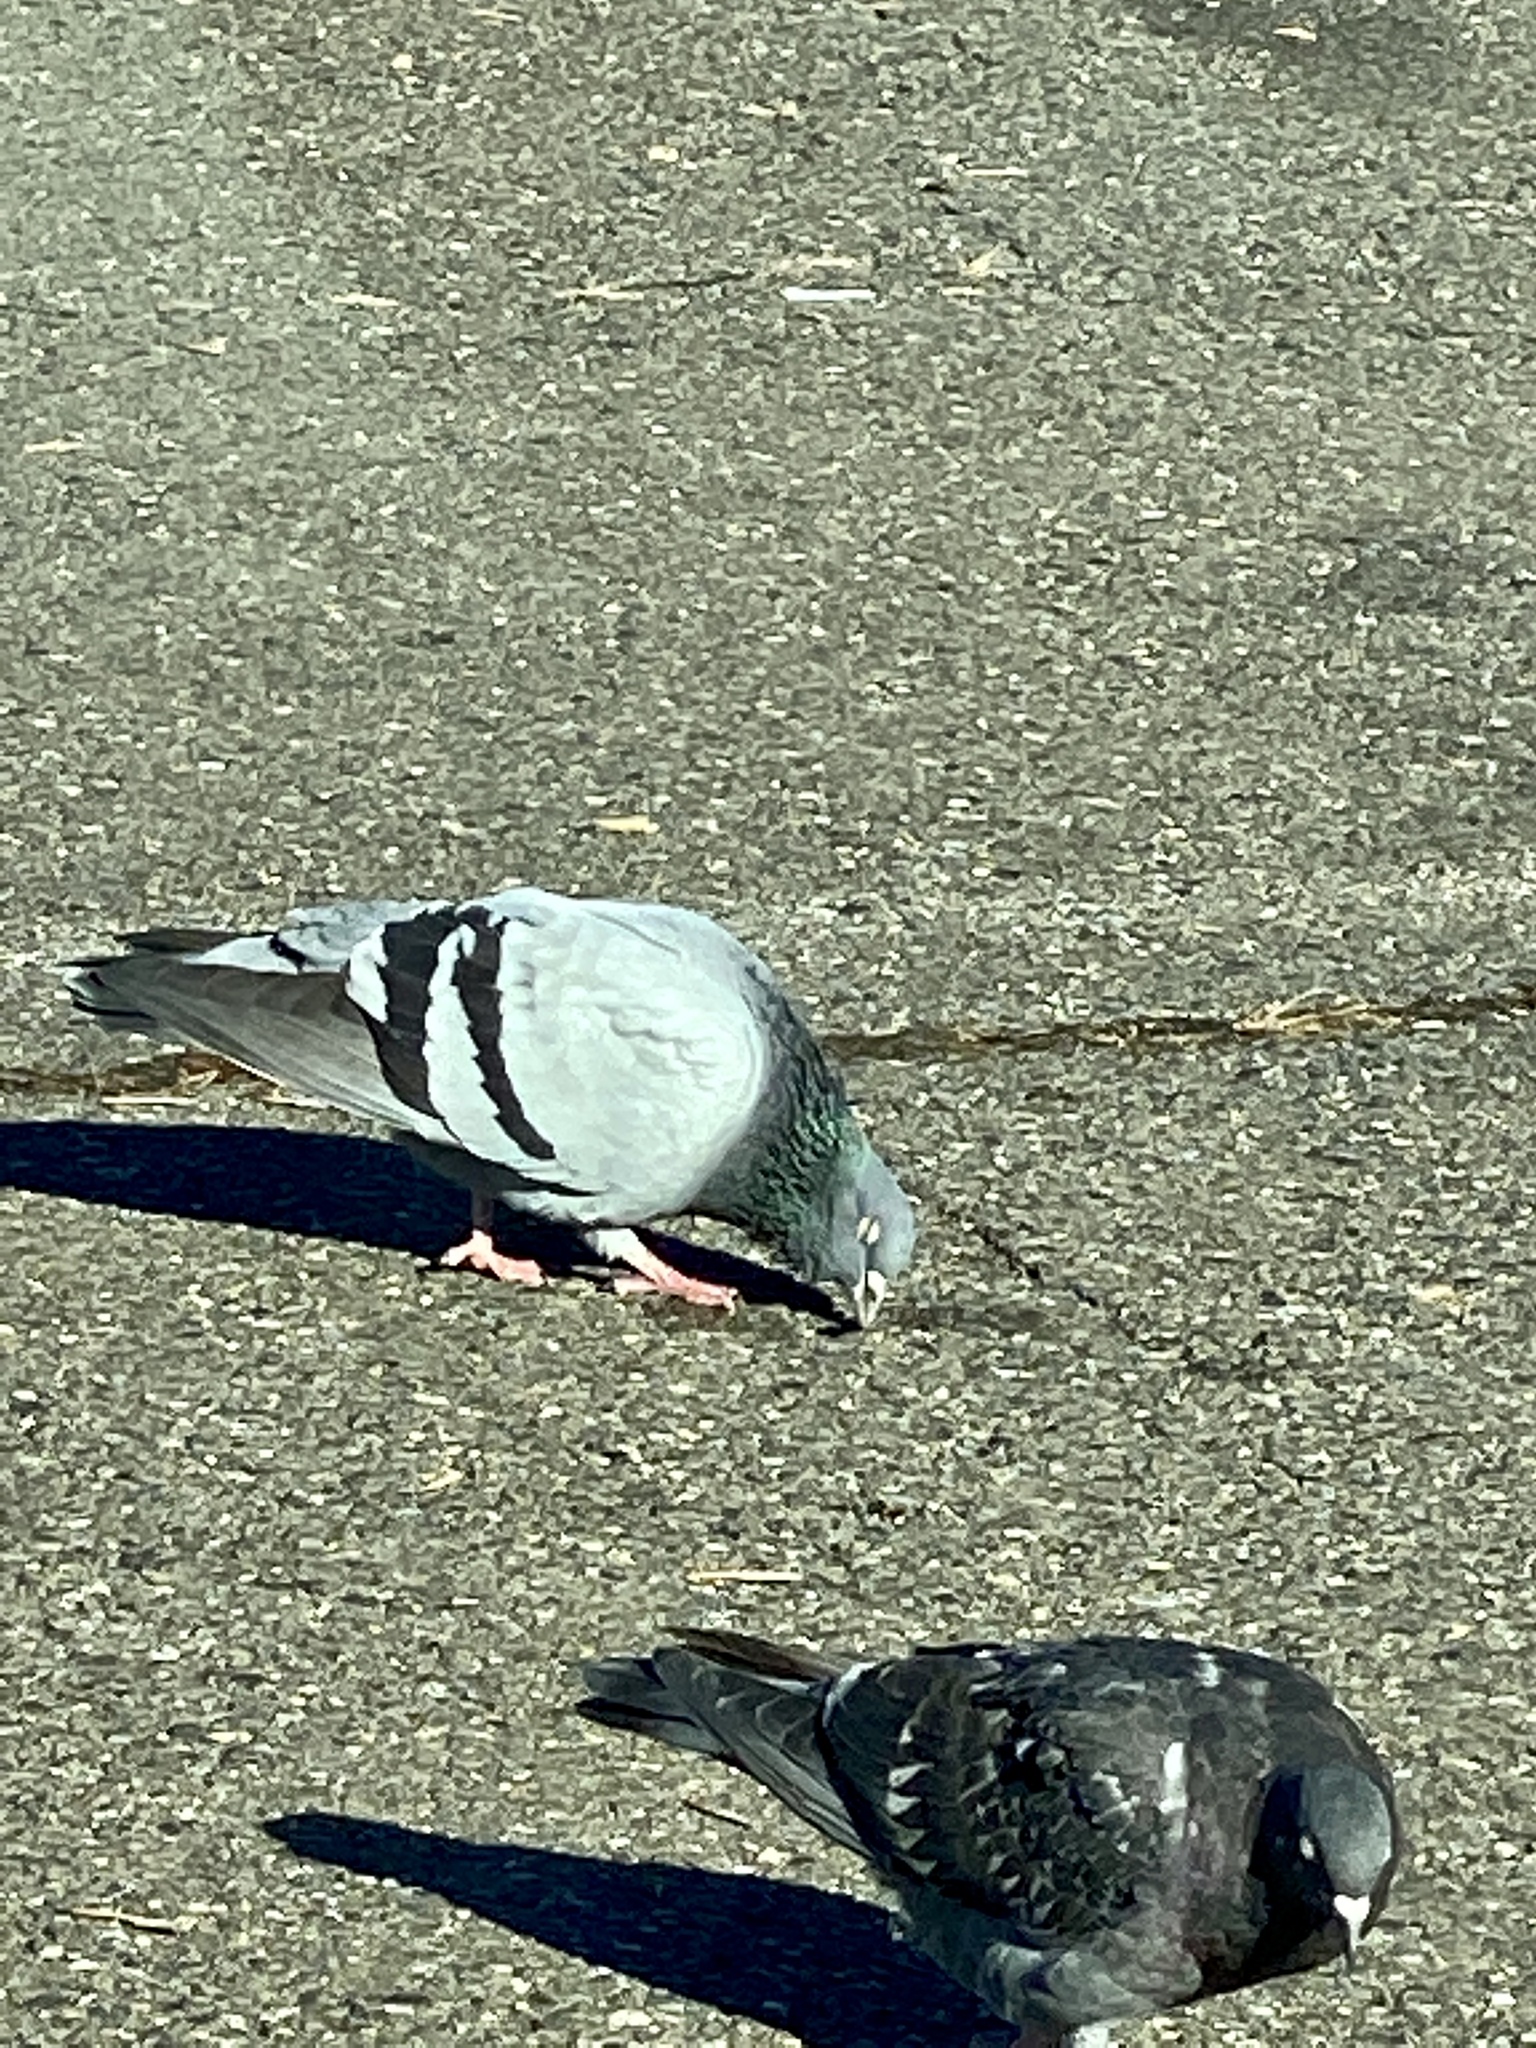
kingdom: Animalia
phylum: Chordata
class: Aves
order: Columbiformes
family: Columbidae
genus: Columba
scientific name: Columba livia
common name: Rock pigeon
